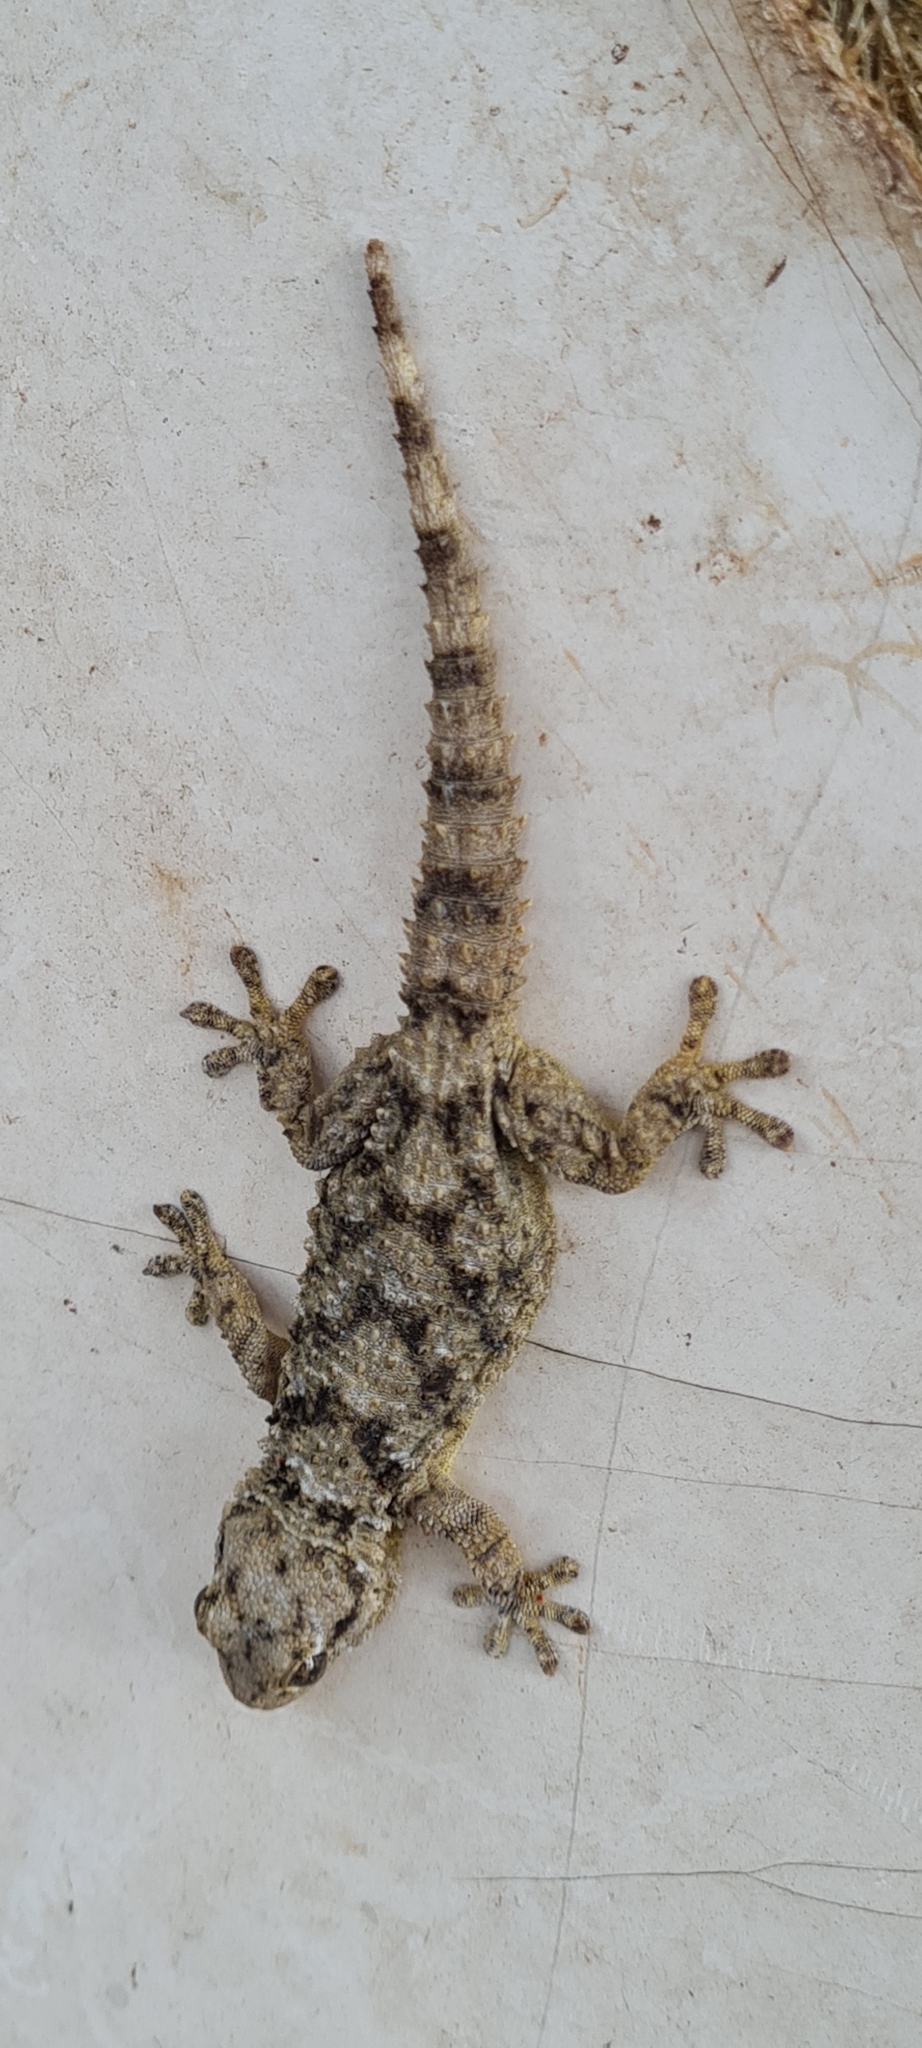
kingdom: Animalia
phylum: Chordata
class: Squamata
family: Phyllodactylidae
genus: Tarentola
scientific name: Tarentola mauritanica
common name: Moorish gecko
